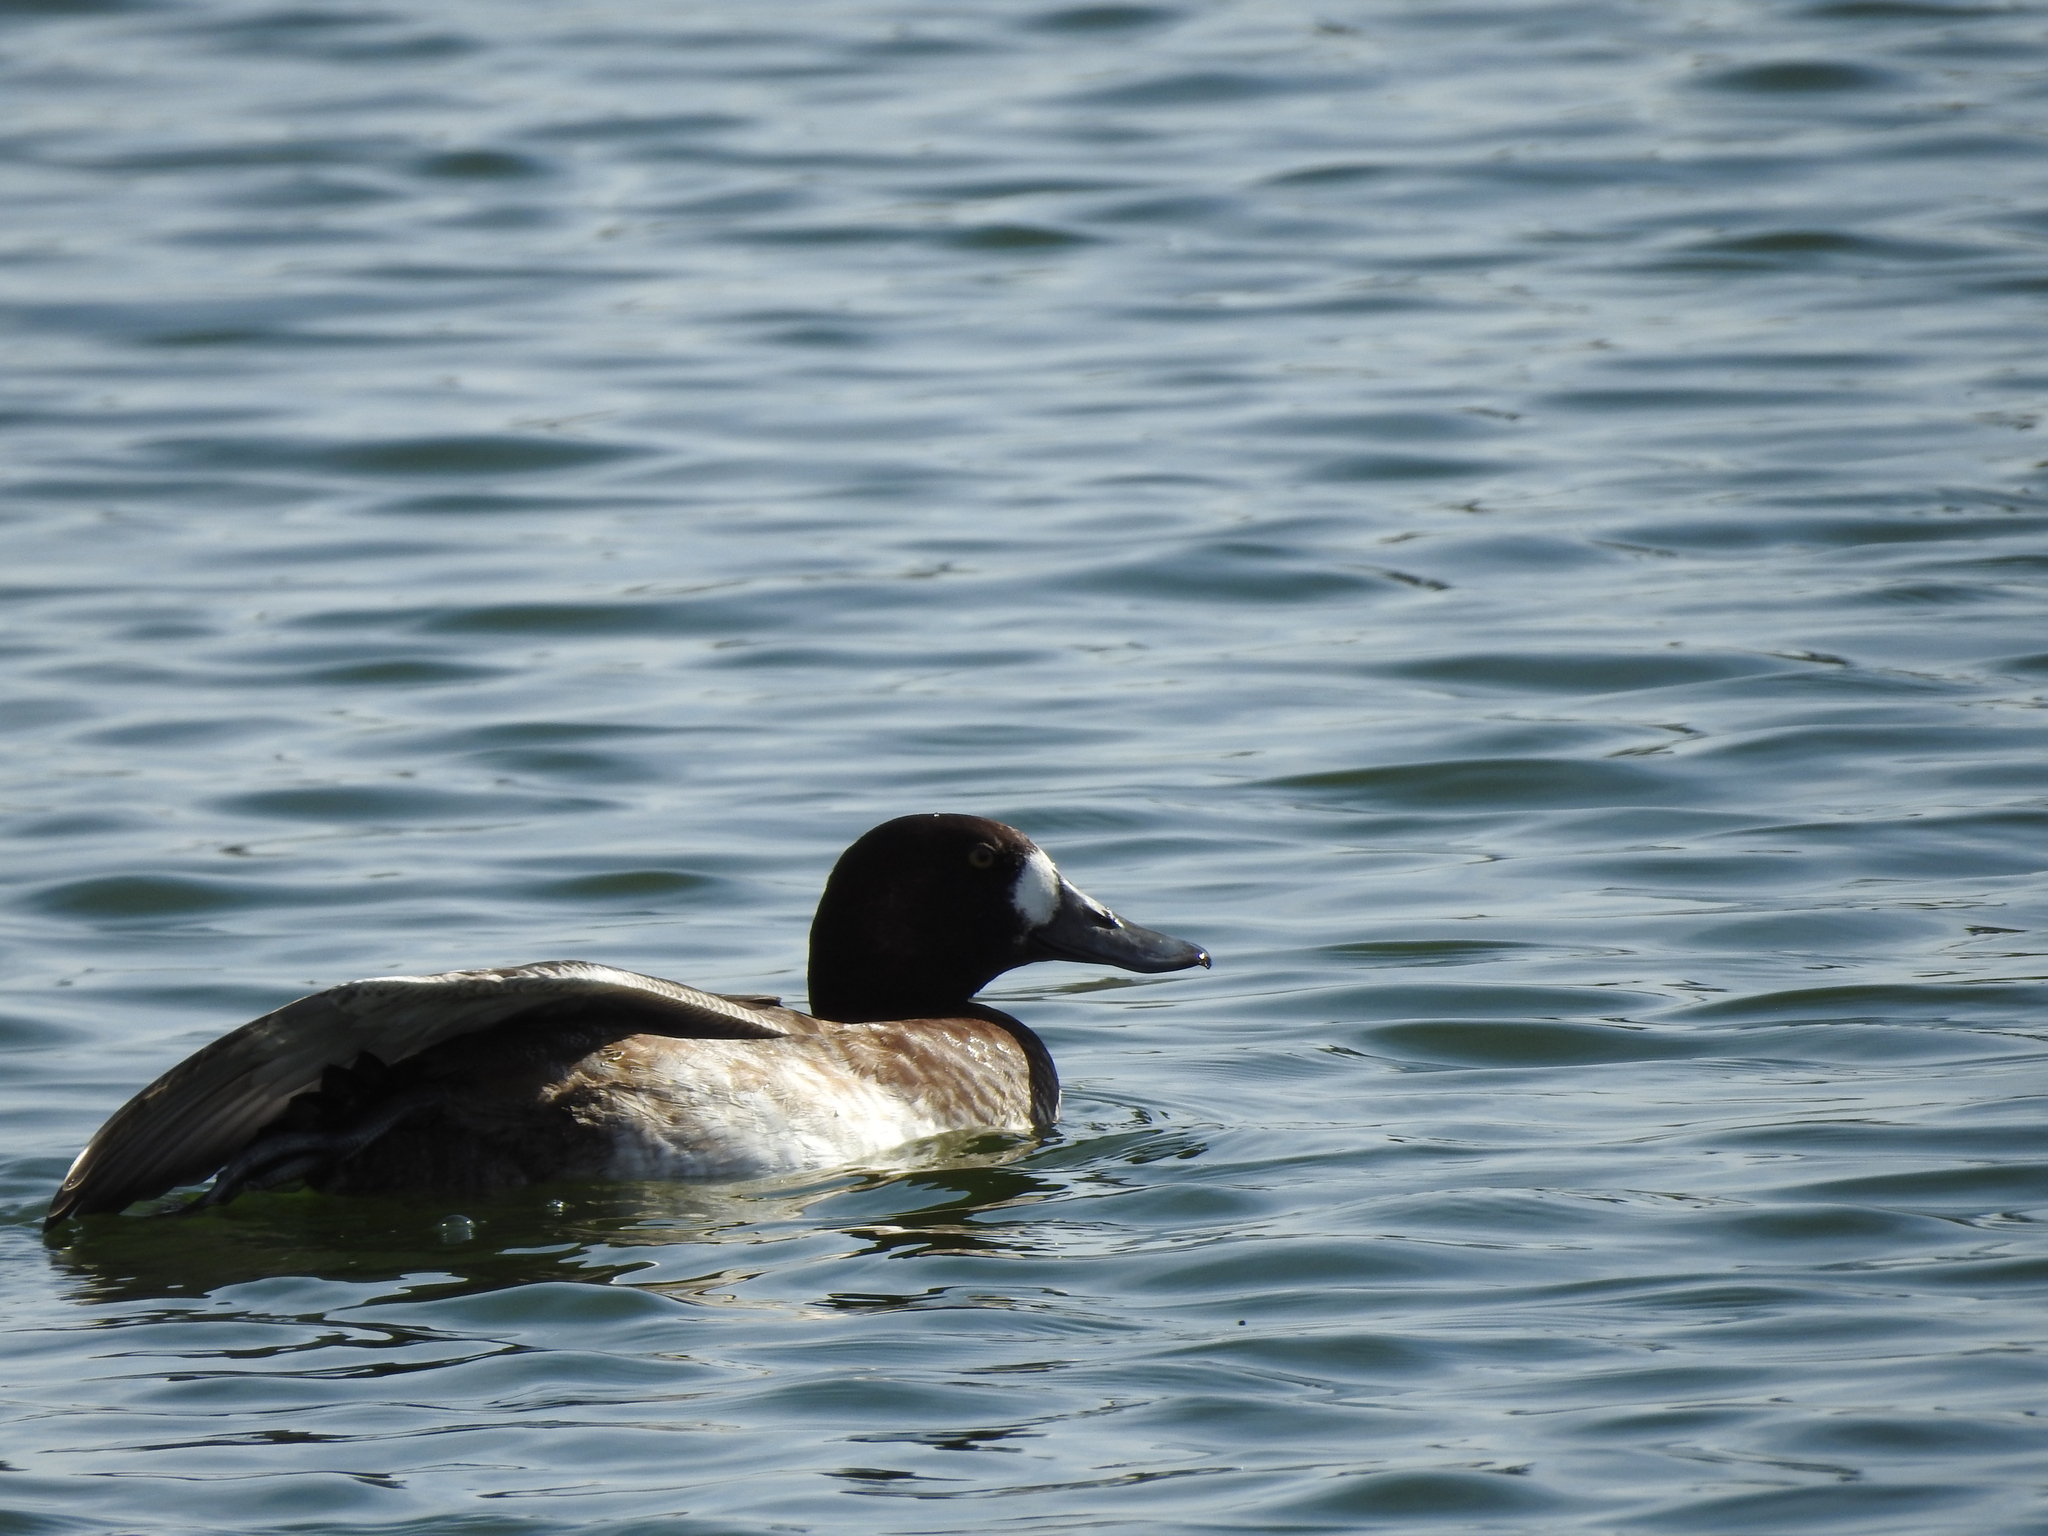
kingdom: Animalia
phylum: Chordata
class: Aves
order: Anseriformes
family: Anatidae
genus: Aythya
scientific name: Aythya marila
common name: Greater scaup
